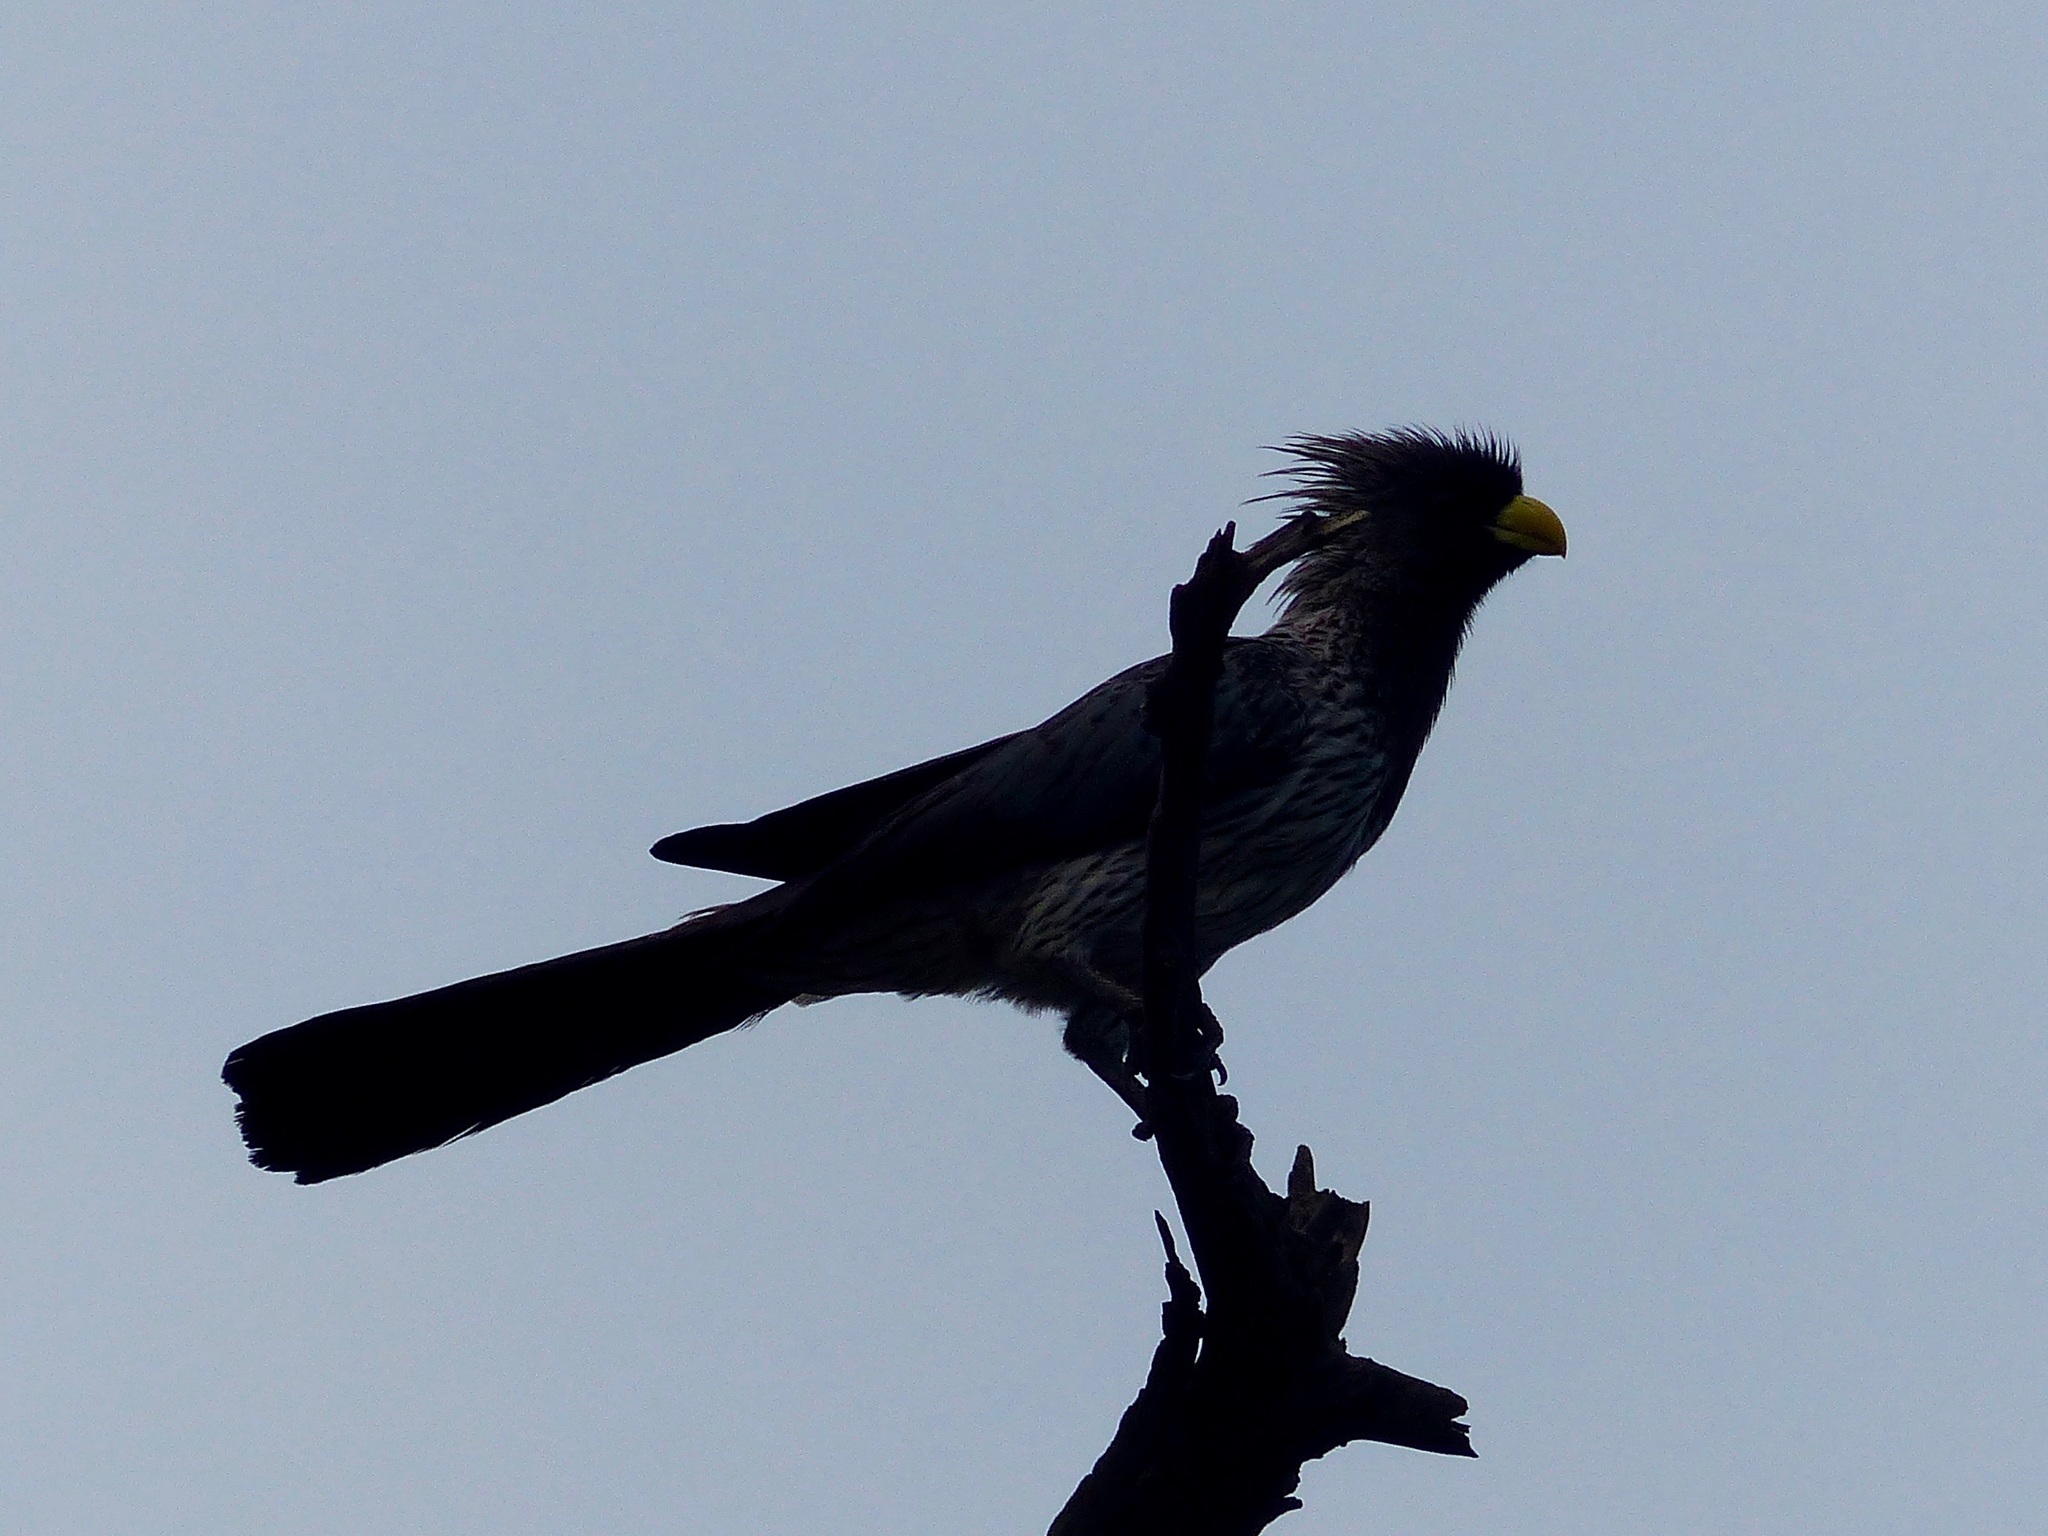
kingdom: Animalia
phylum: Chordata
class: Aves
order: Musophagiformes
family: Musophagidae
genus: Crinifer
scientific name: Crinifer piscator
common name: Western plantain-eater
